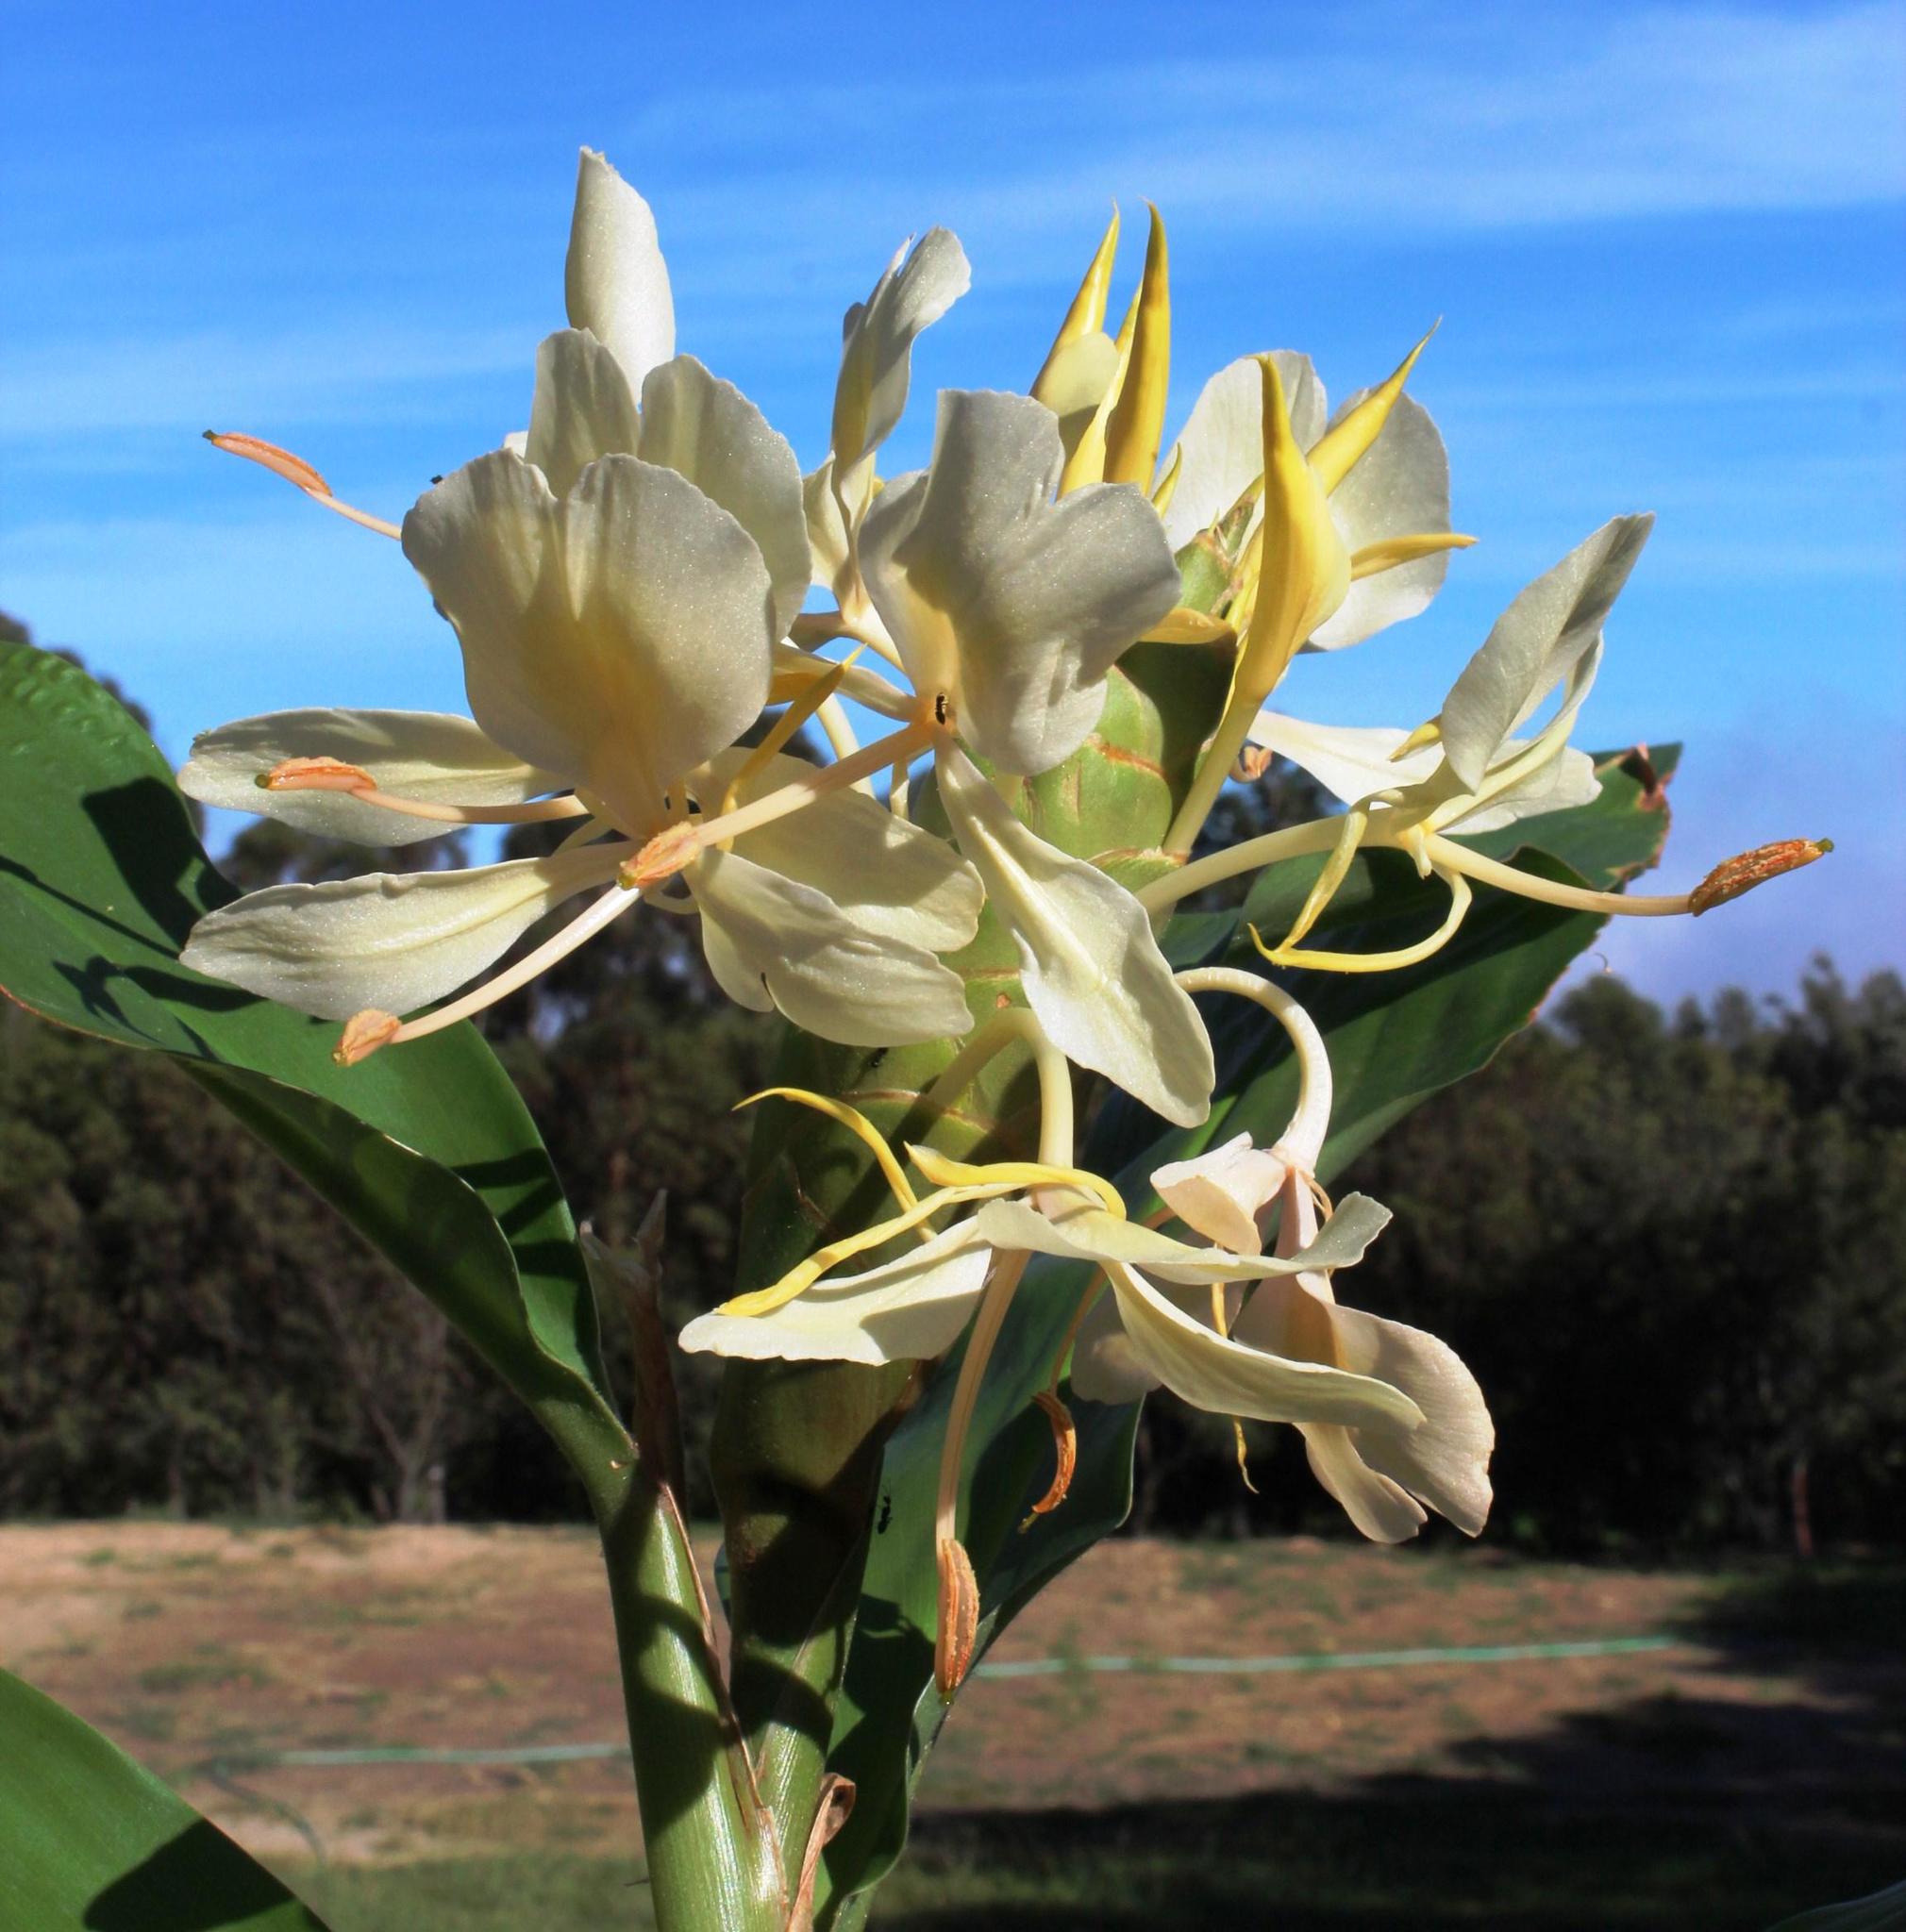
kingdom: Plantae
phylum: Tracheophyta
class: Liliopsida
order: Zingiberales
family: Zingiberaceae
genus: Hedychium
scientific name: Hedychium flavescens
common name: Yellow ginger
